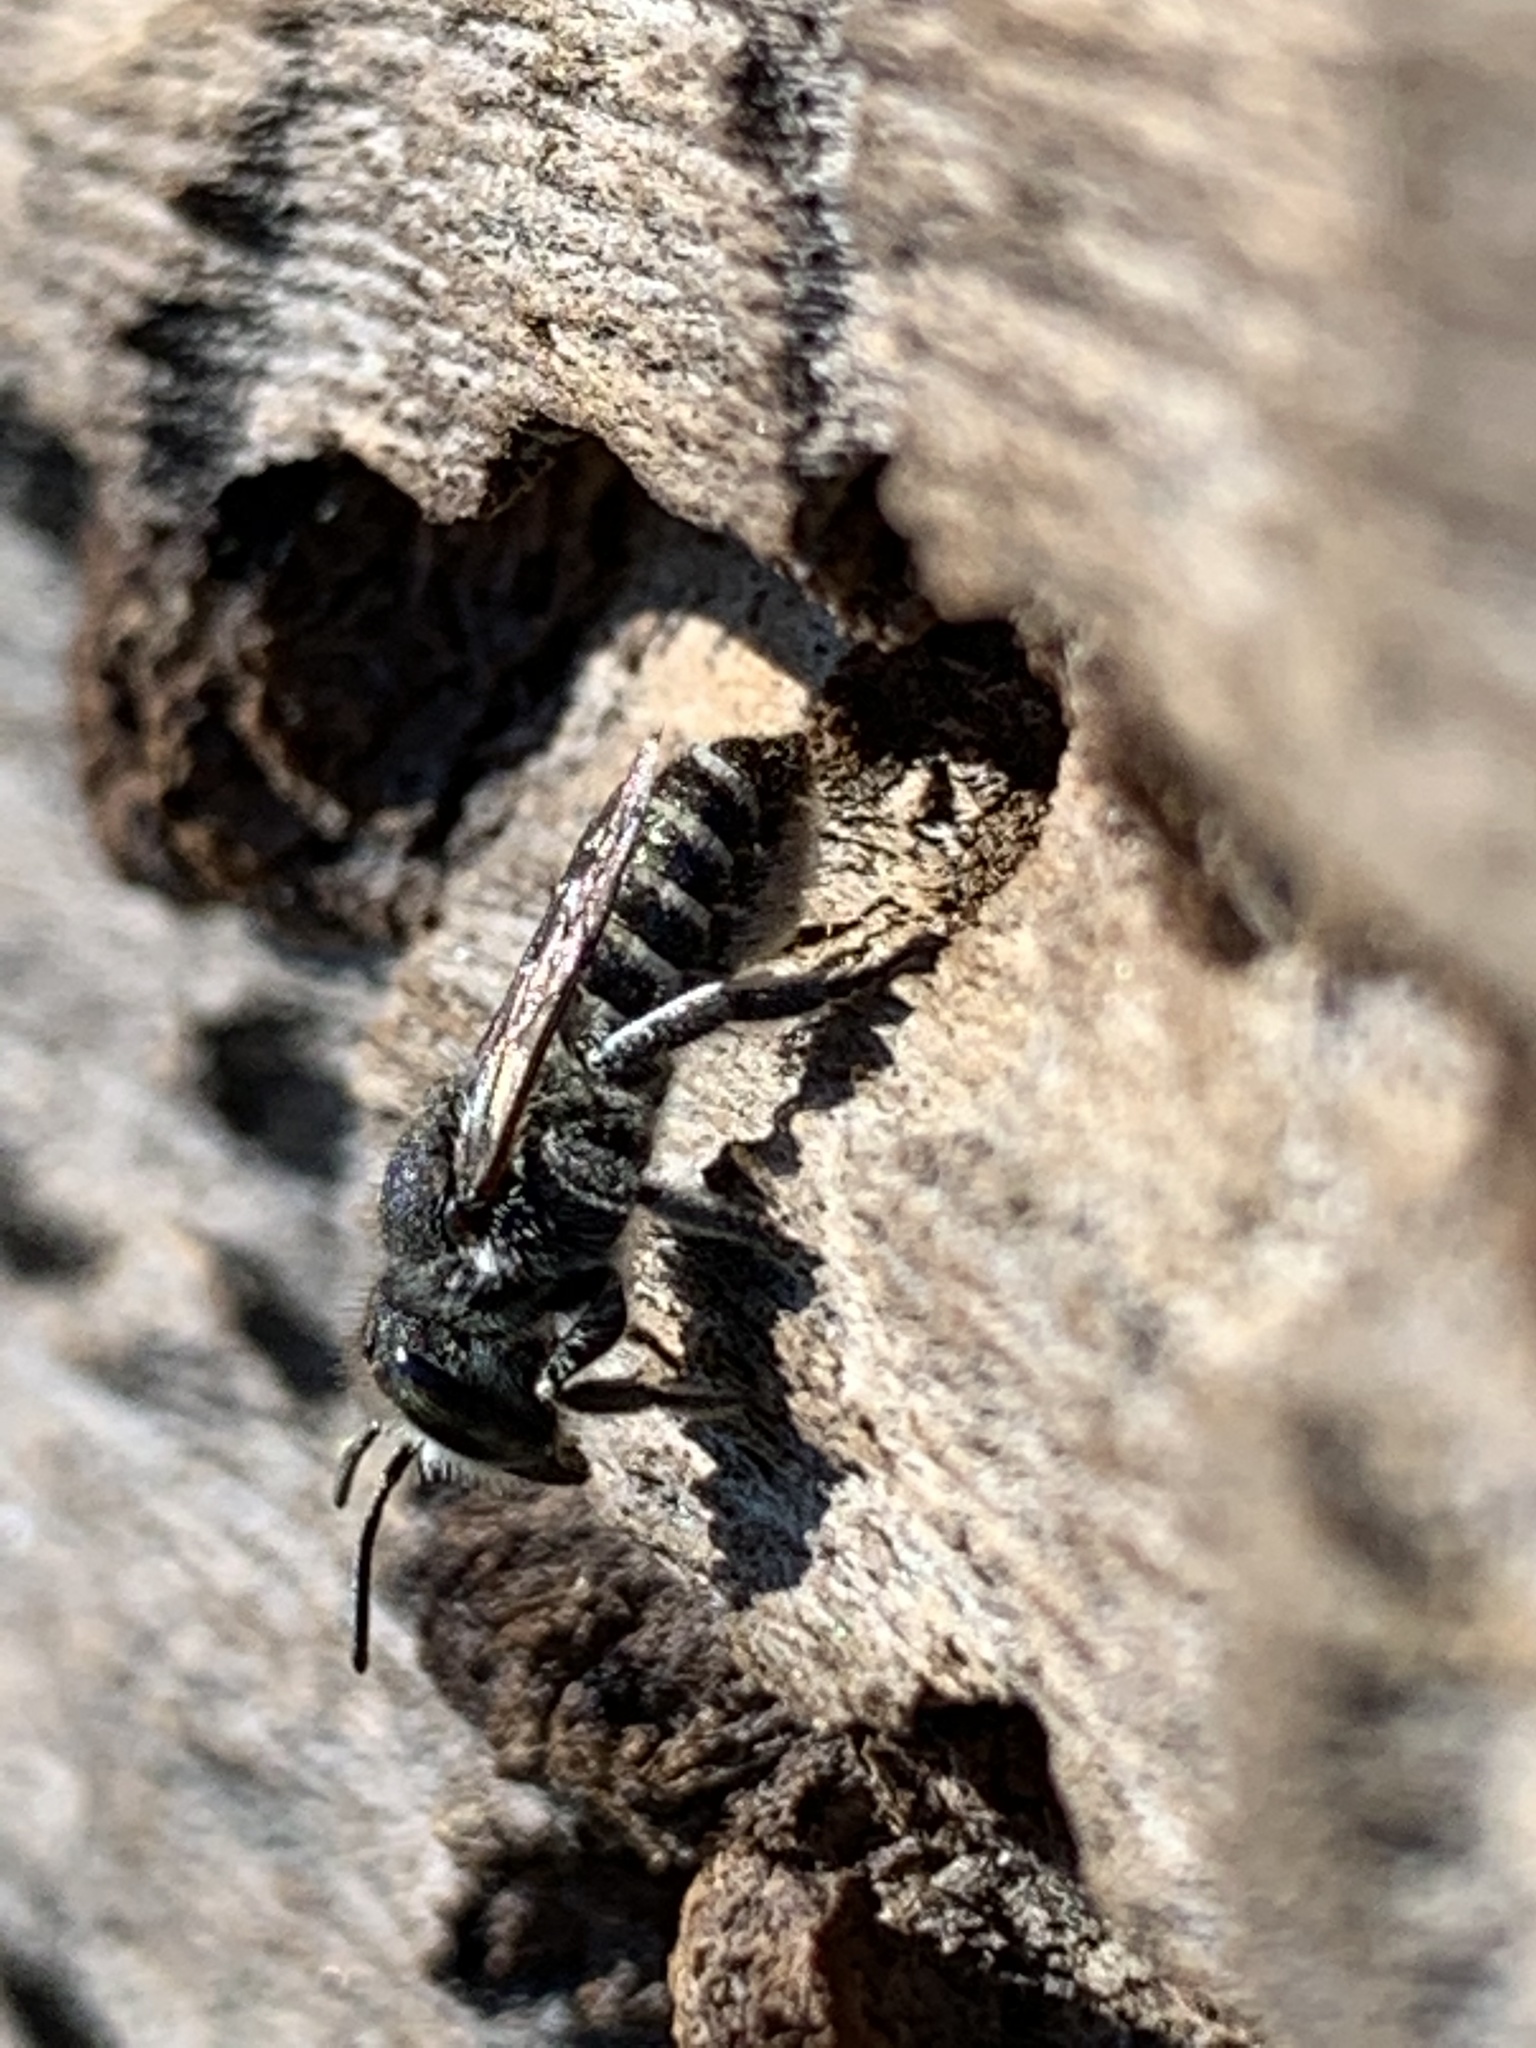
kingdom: Animalia
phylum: Arthropoda
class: Insecta
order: Hymenoptera
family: Megachilidae
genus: Megachile
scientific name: Megachile rotundata
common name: Alfalfa leafcutting bee
